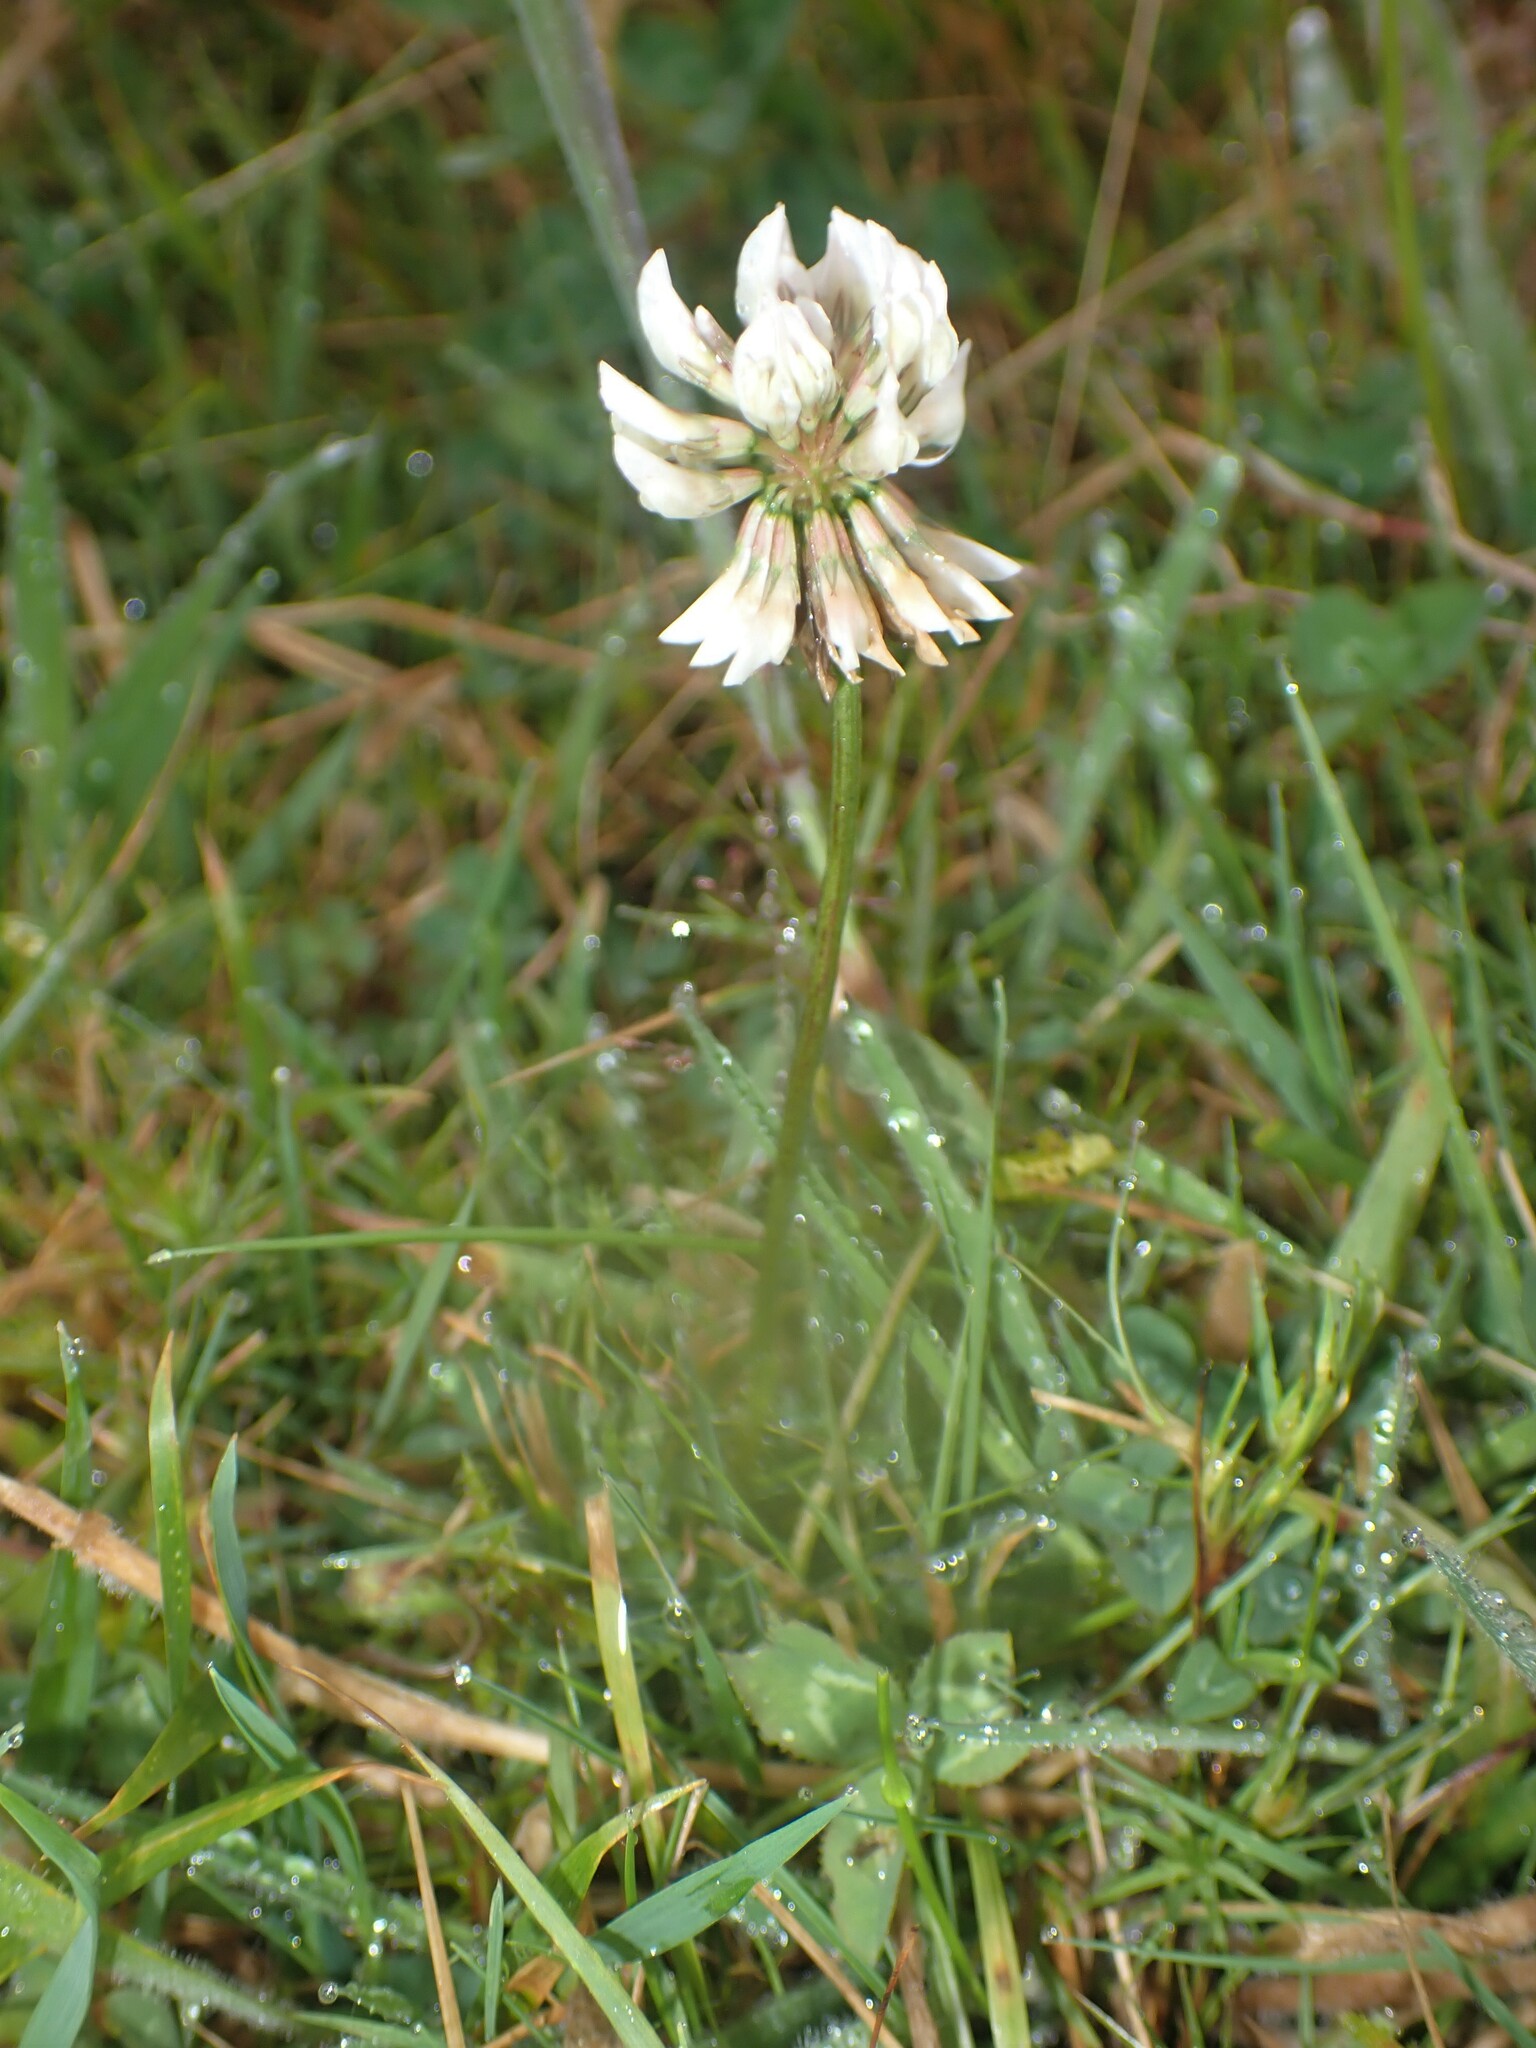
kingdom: Plantae
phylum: Tracheophyta
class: Magnoliopsida
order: Fabales
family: Fabaceae
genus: Trifolium
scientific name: Trifolium repens
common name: White clover
